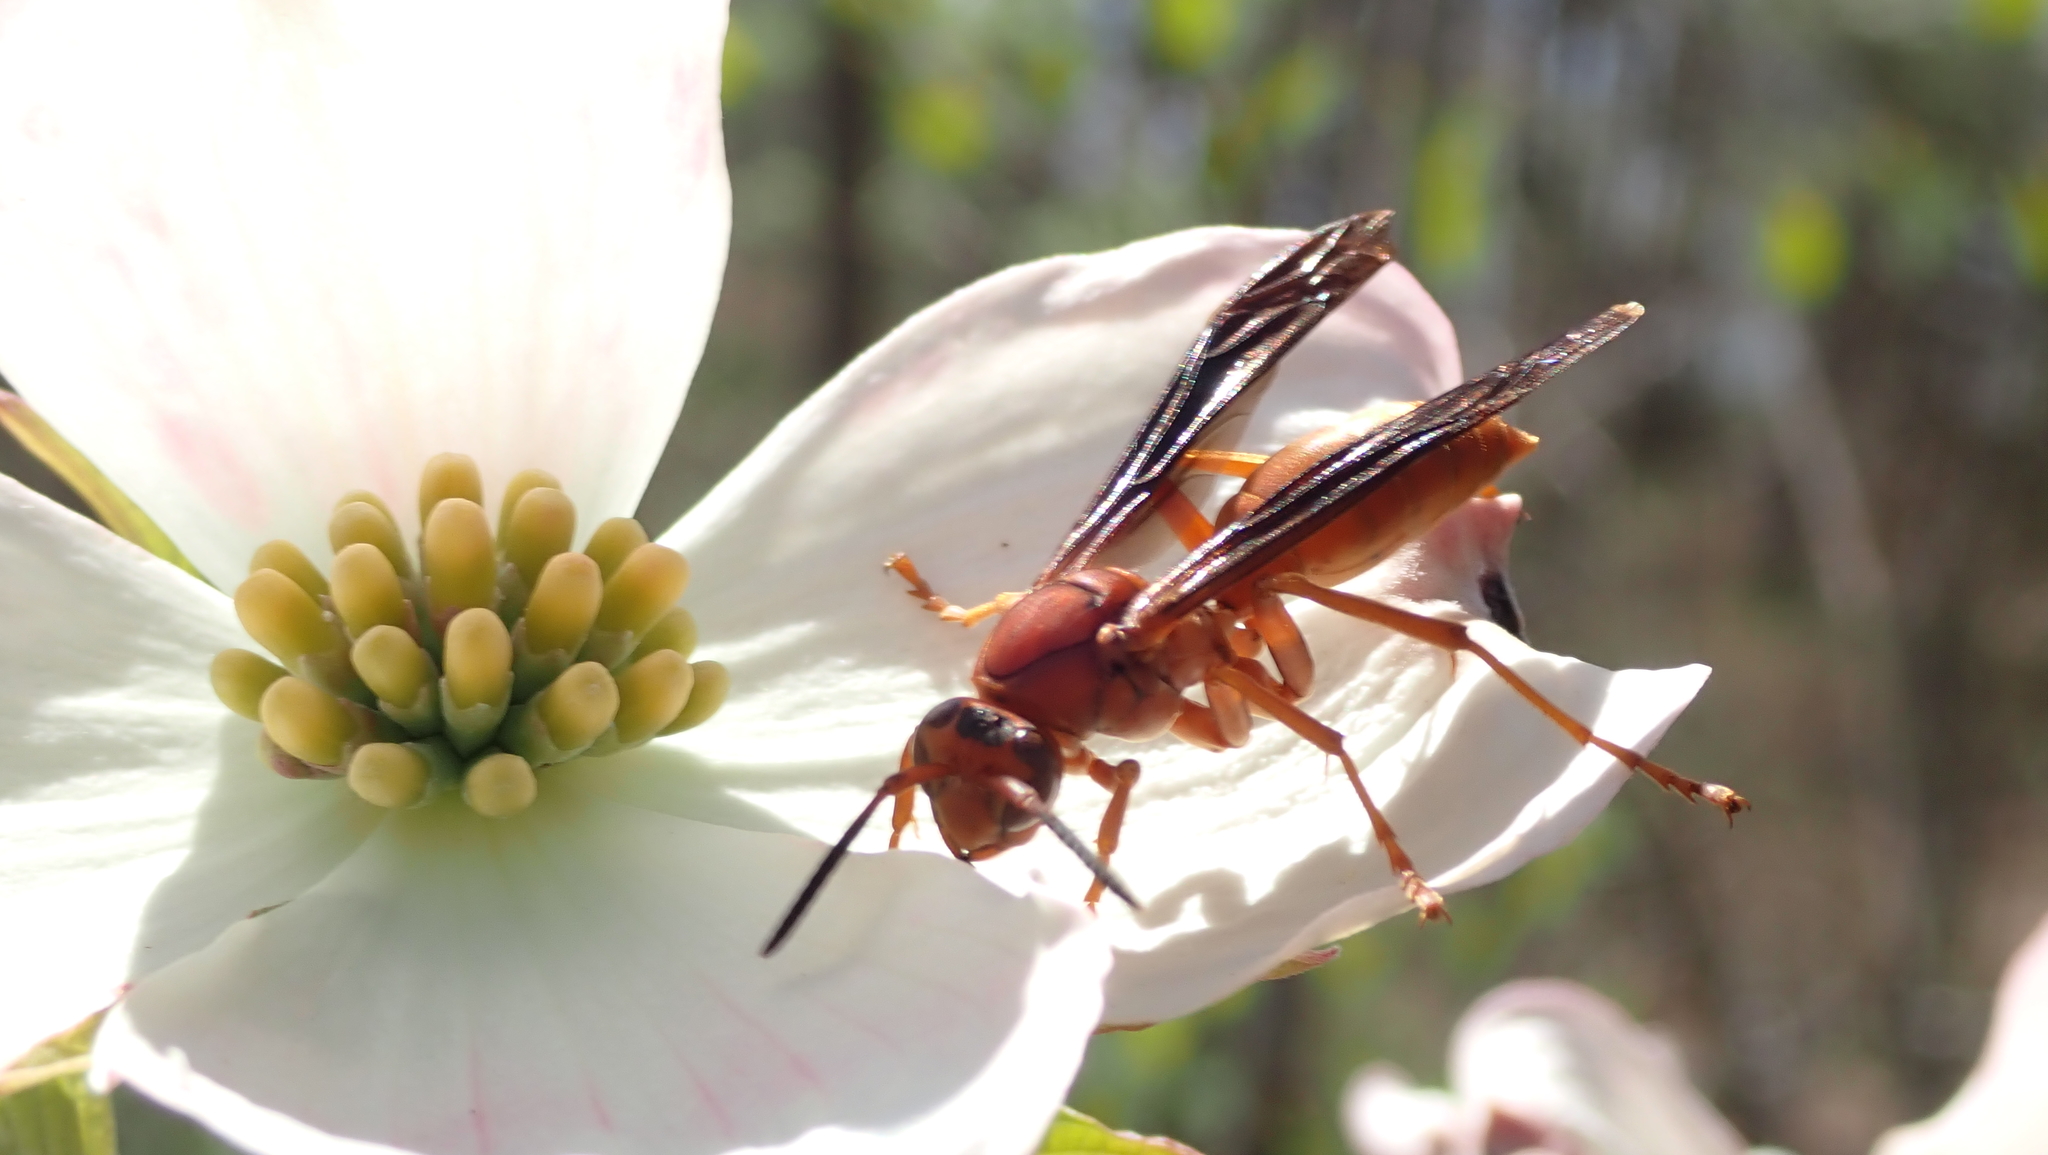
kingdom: Animalia
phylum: Arthropoda
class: Insecta
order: Hymenoptera
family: Vespidae
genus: Fuscopolistes
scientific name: Fuscopolistes
